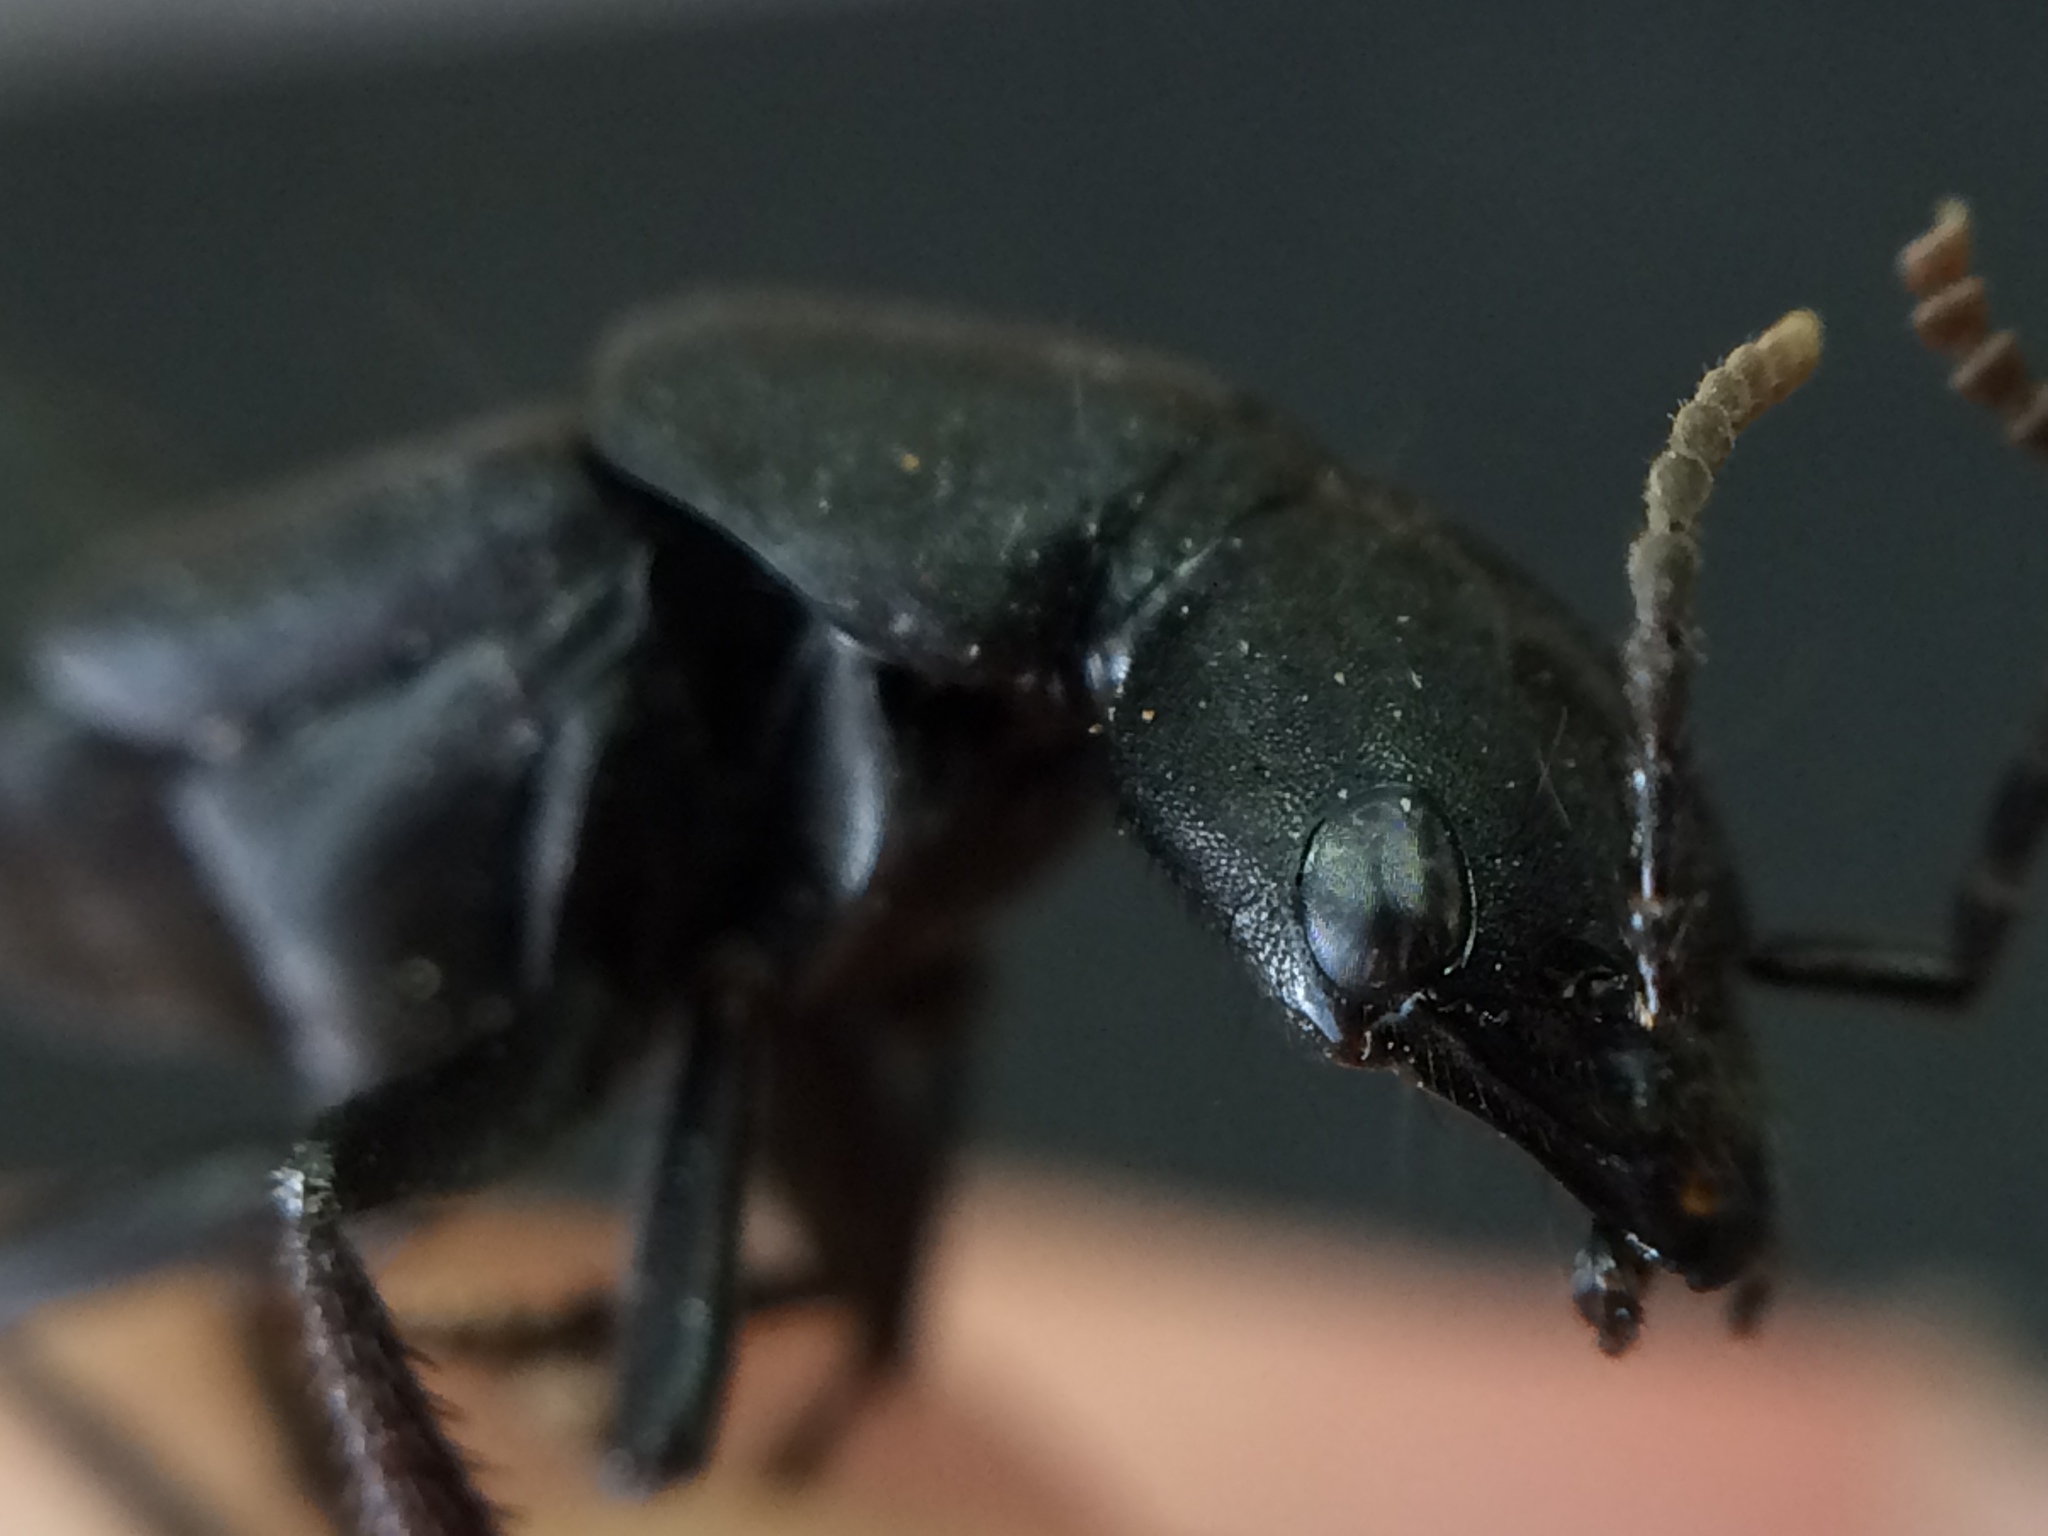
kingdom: Animalia
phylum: Arthropoda
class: Insecta
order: Coleoptera
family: Staphylinidae
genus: Ocypus
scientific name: Ocypus olens
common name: Devil's coach-horse
